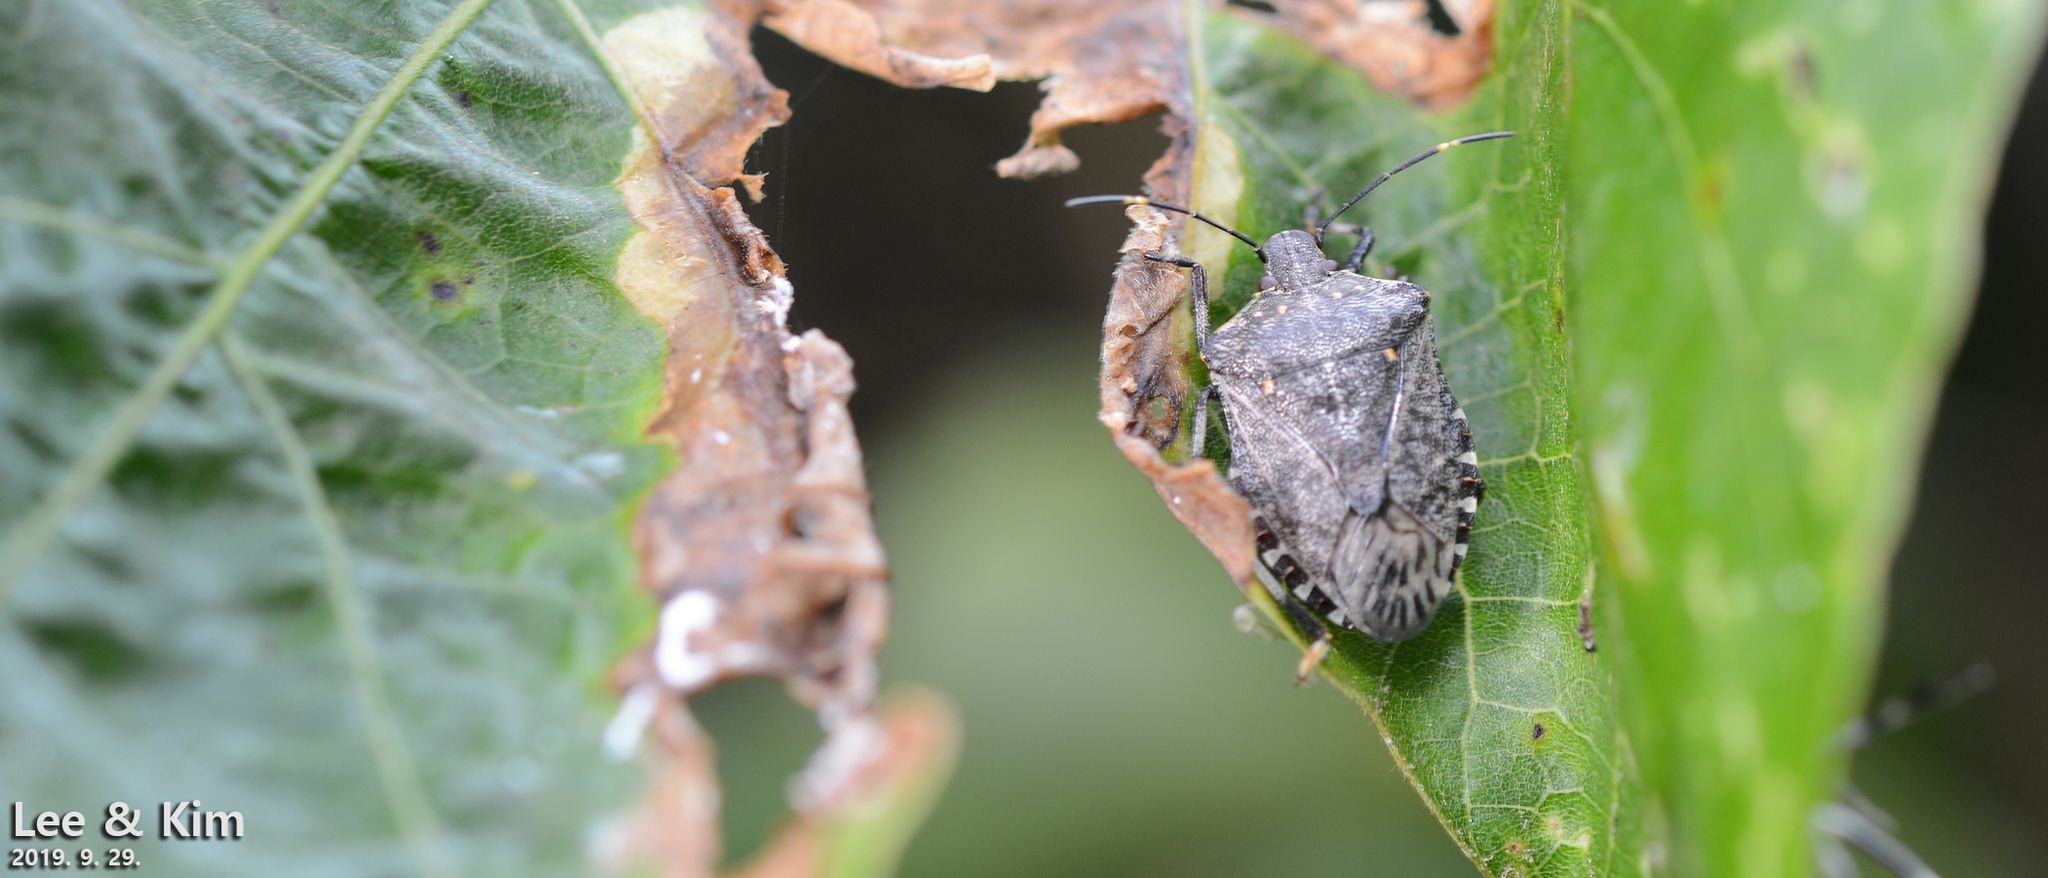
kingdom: Animalia
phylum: Arthropoda
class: Insecta
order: Hemiptera
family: Pentatomidae
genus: Halyomorpha
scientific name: Halyomorpha halys
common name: Brown marmorated stink bug
